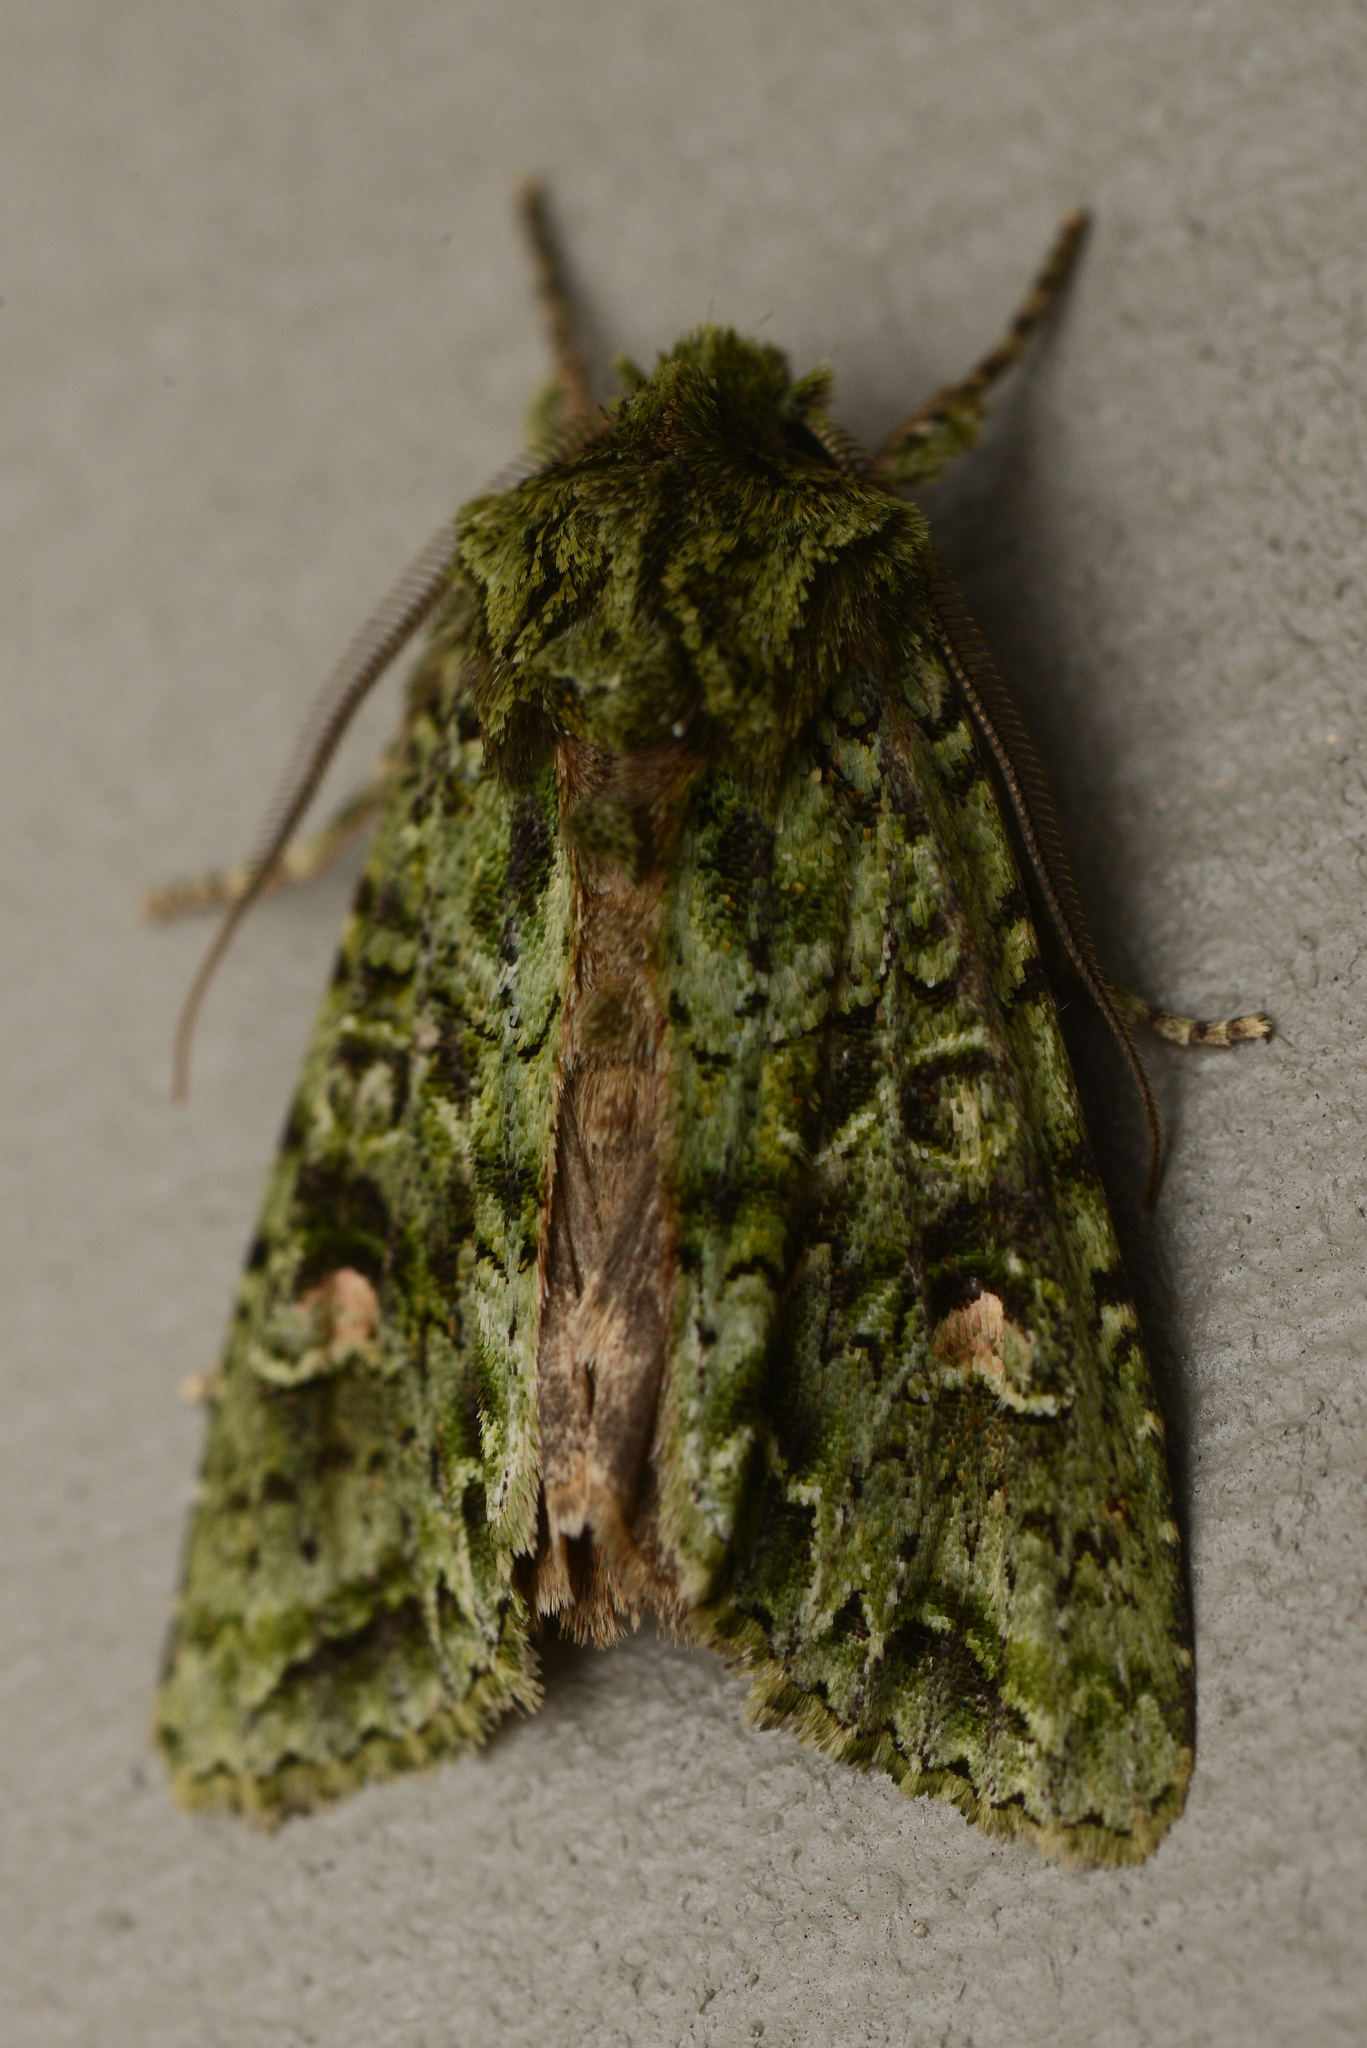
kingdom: Animalia
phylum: Arthropoda
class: Insecta
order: Lepidoptera
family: Noctuidae
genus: Ichneutica
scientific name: Ichneutica
